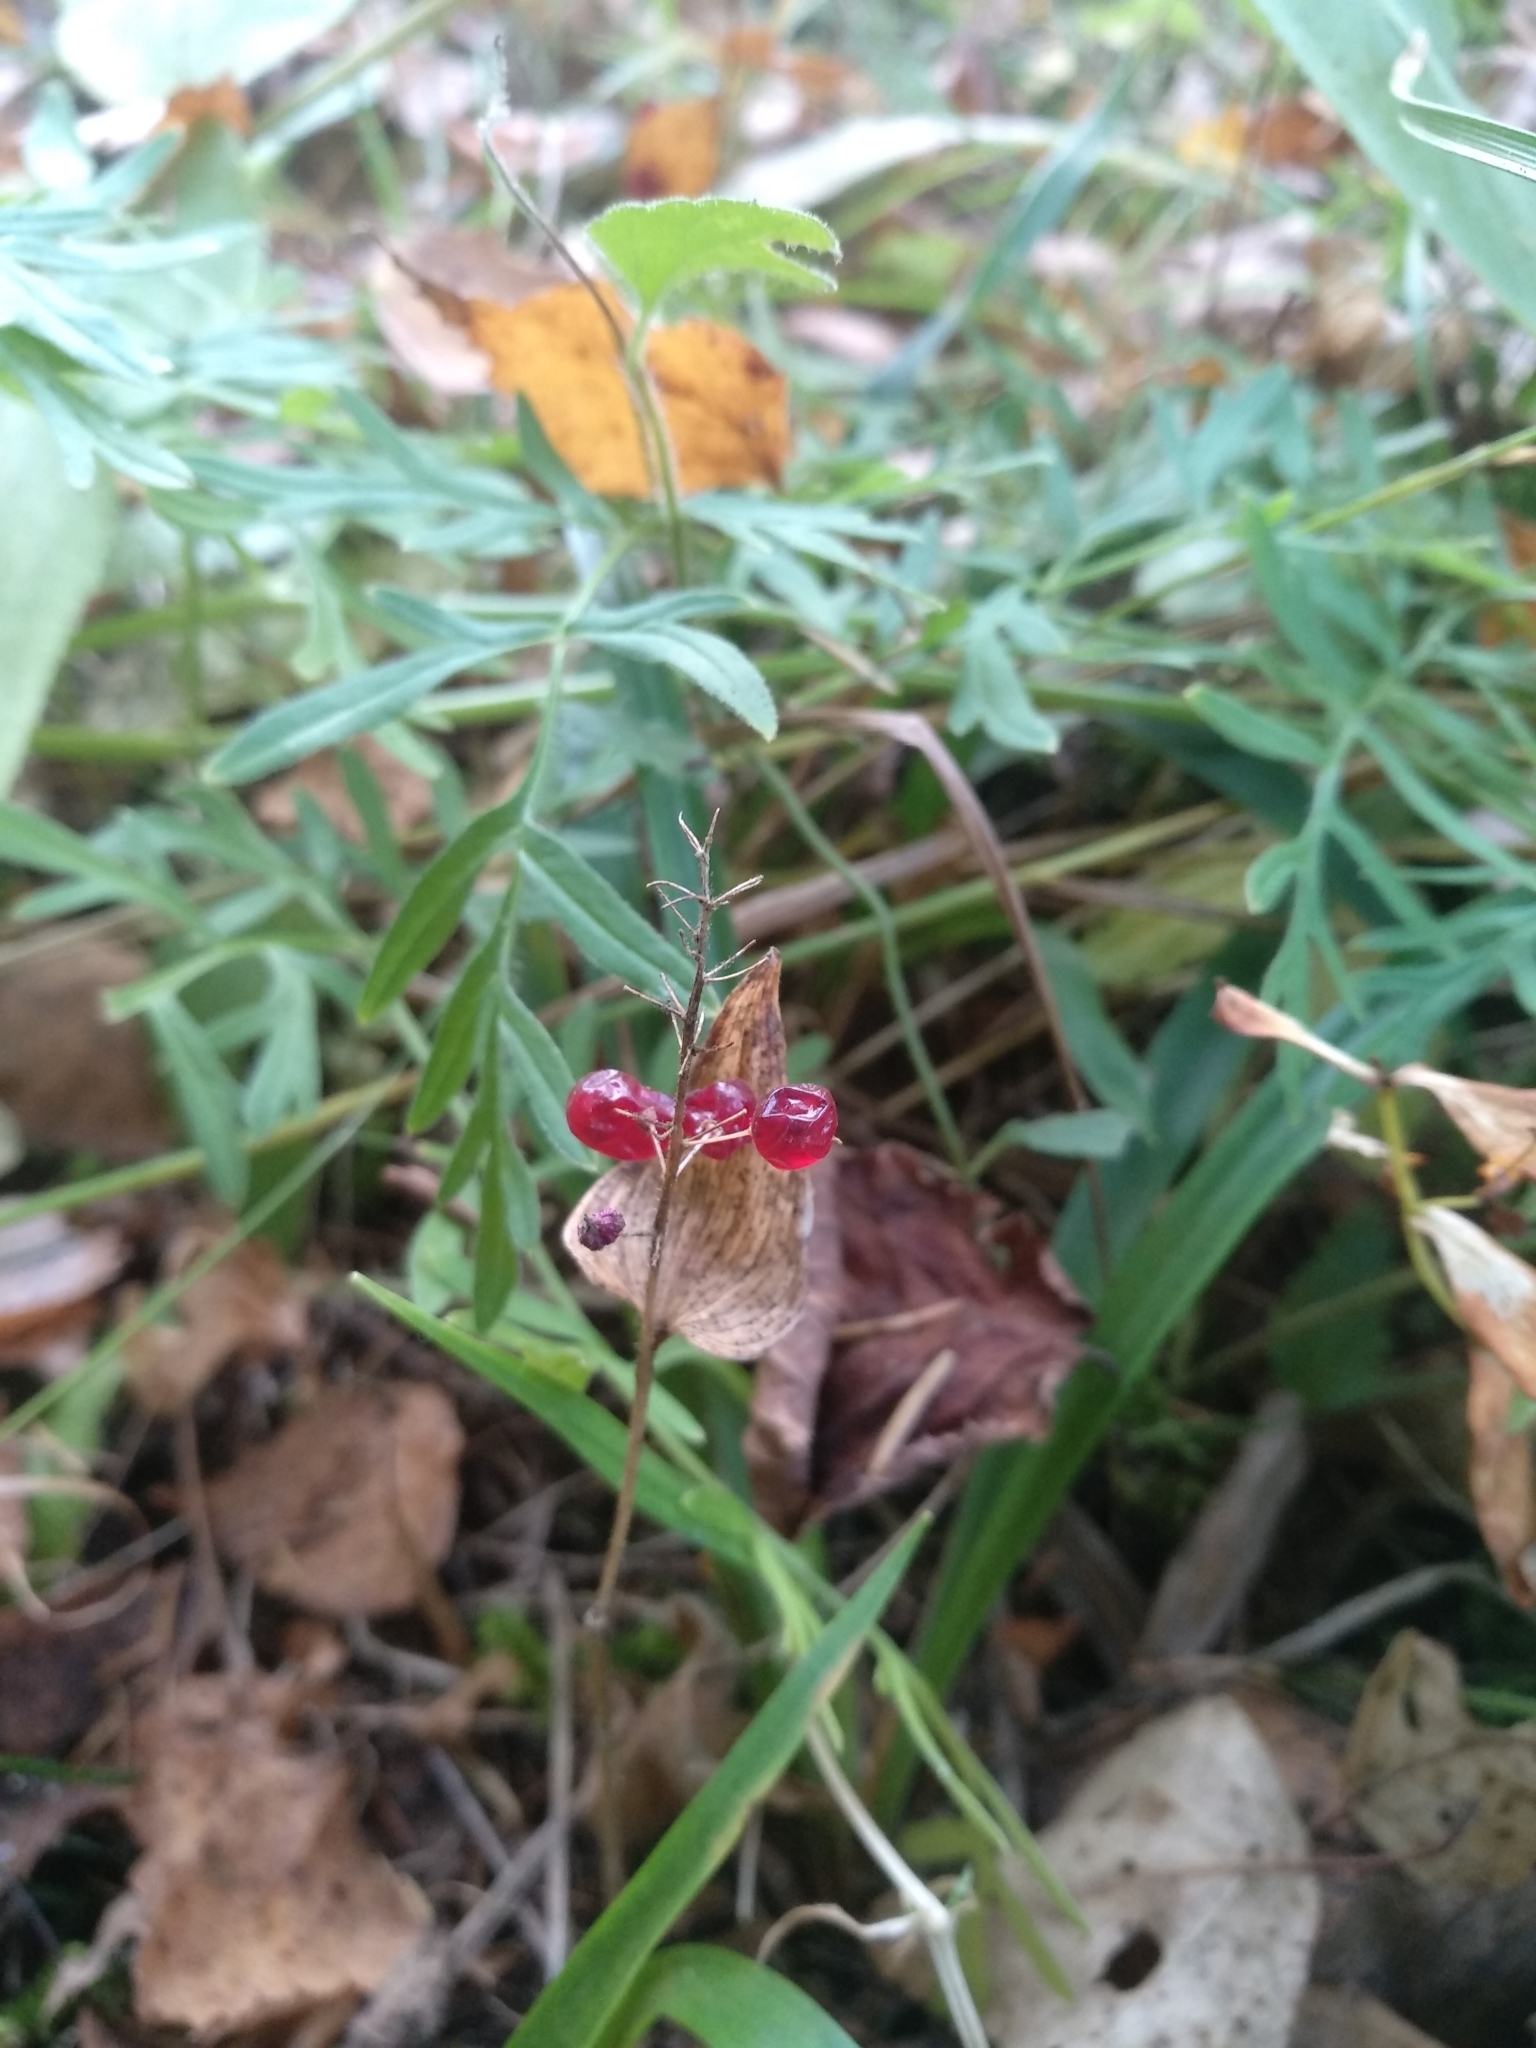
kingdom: Plantae
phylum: Tracheophyta
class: Liliopsida
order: Asparagales
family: Asparagaceae
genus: Maianthemum
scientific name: Maianthemum bifolium
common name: May lily
